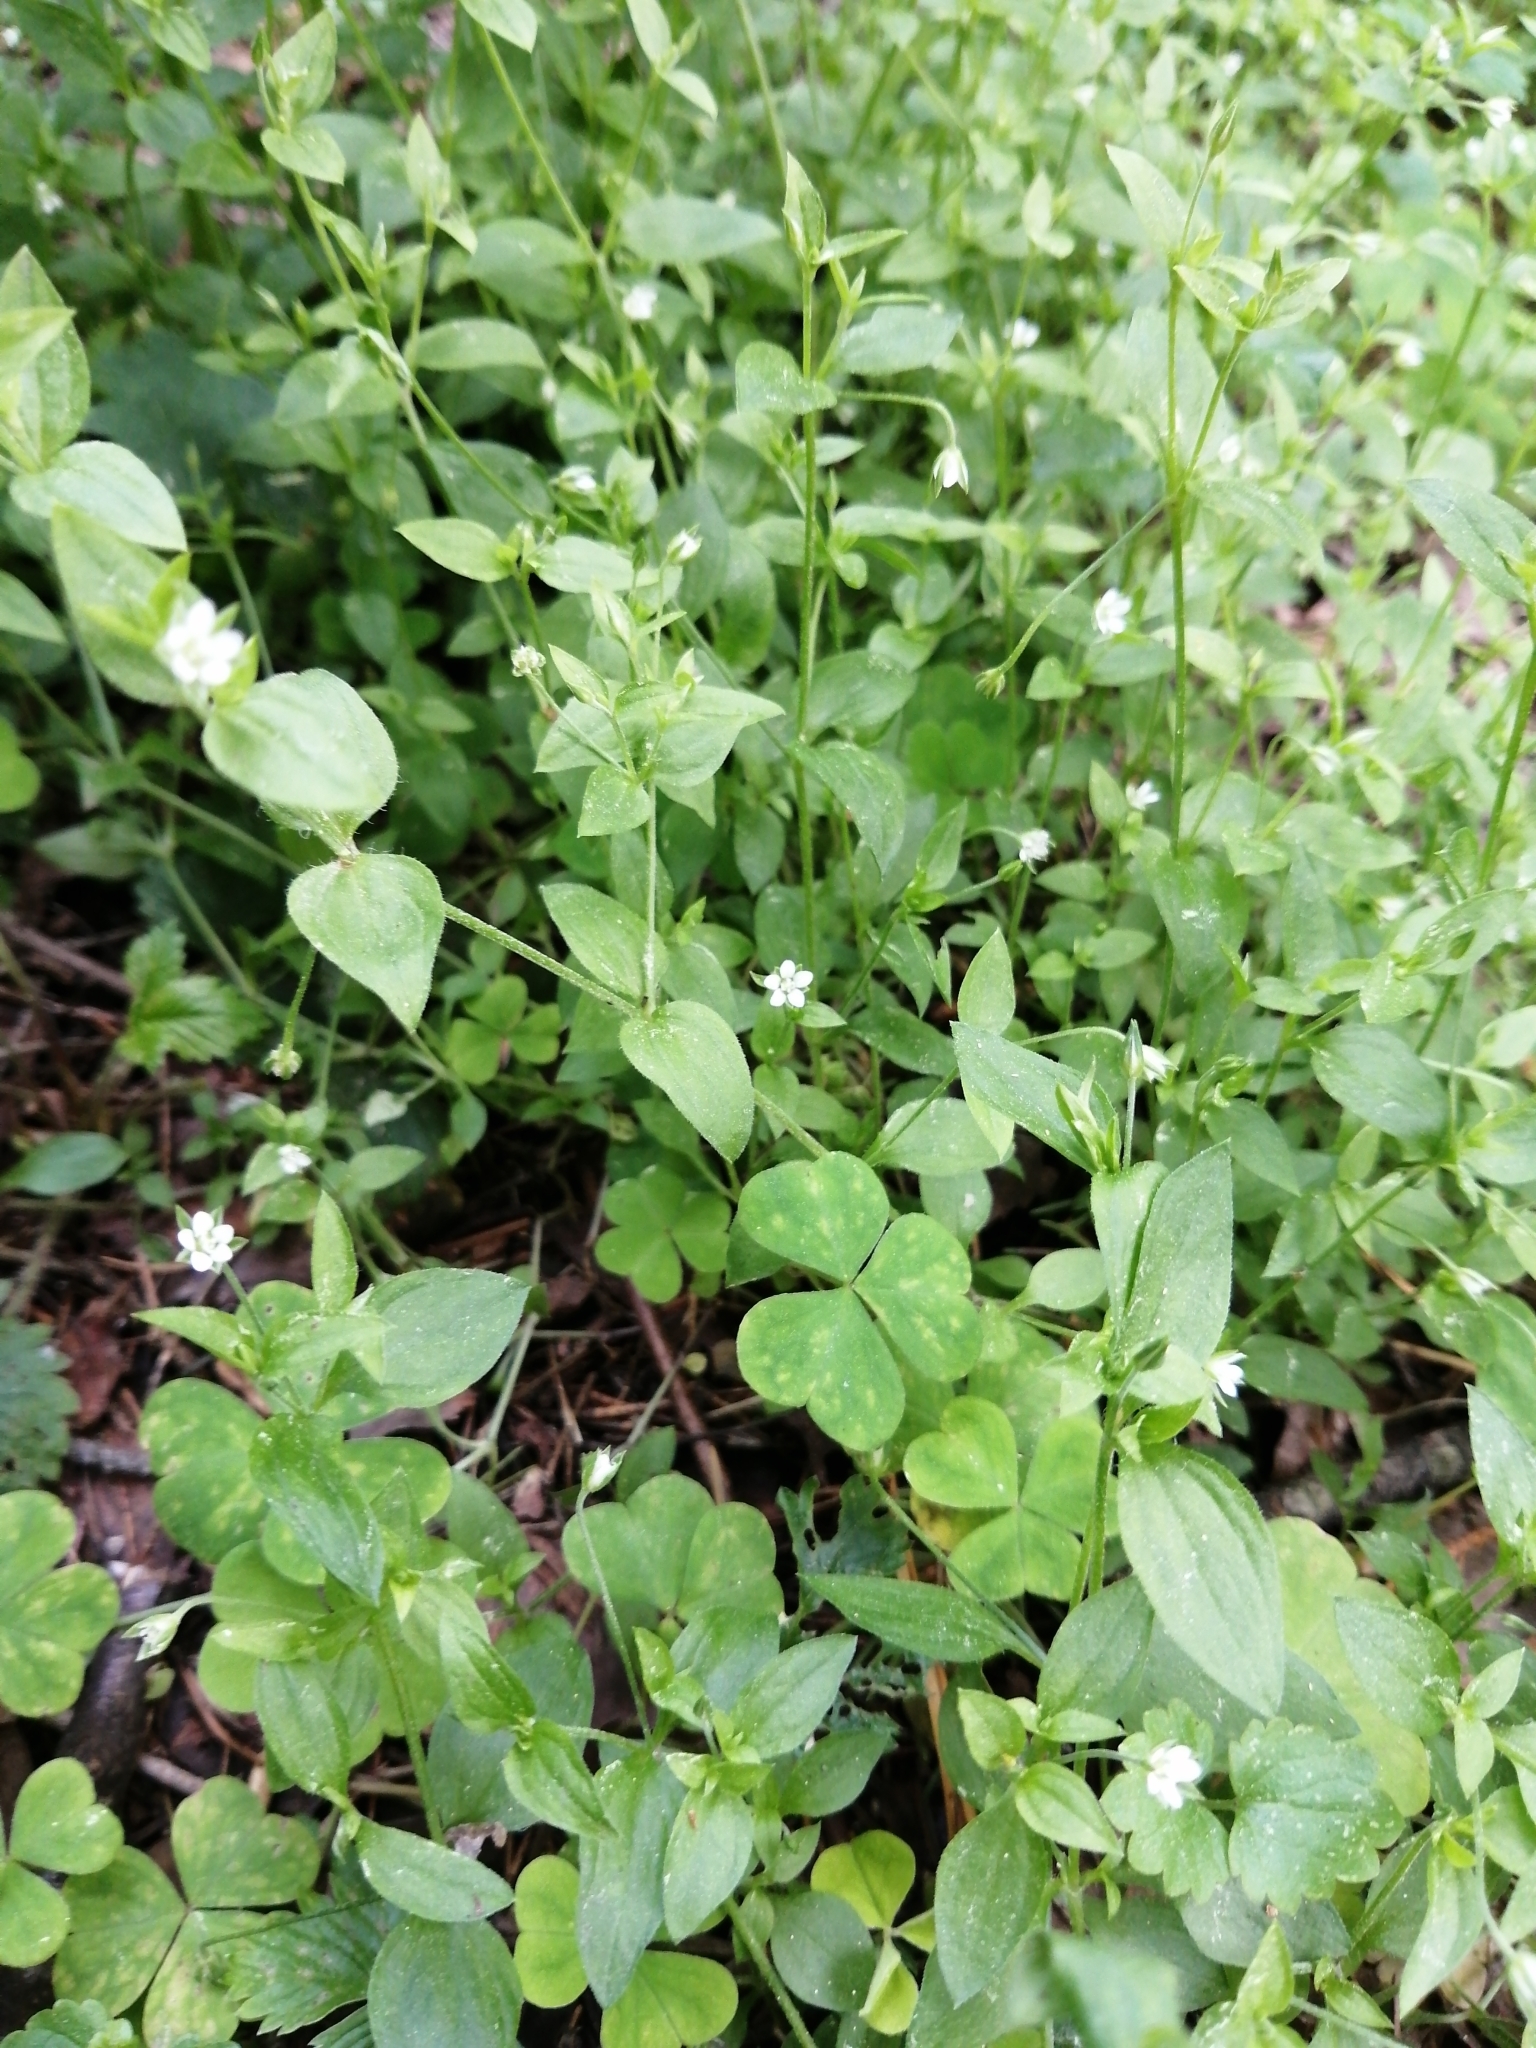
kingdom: Plantae
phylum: Tracheophyta
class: Magnoliopsida
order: Caryophyllales
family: Caryophyllaceae
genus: Moehringia
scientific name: Moehringia trinervia
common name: Three-nerved sandwort
